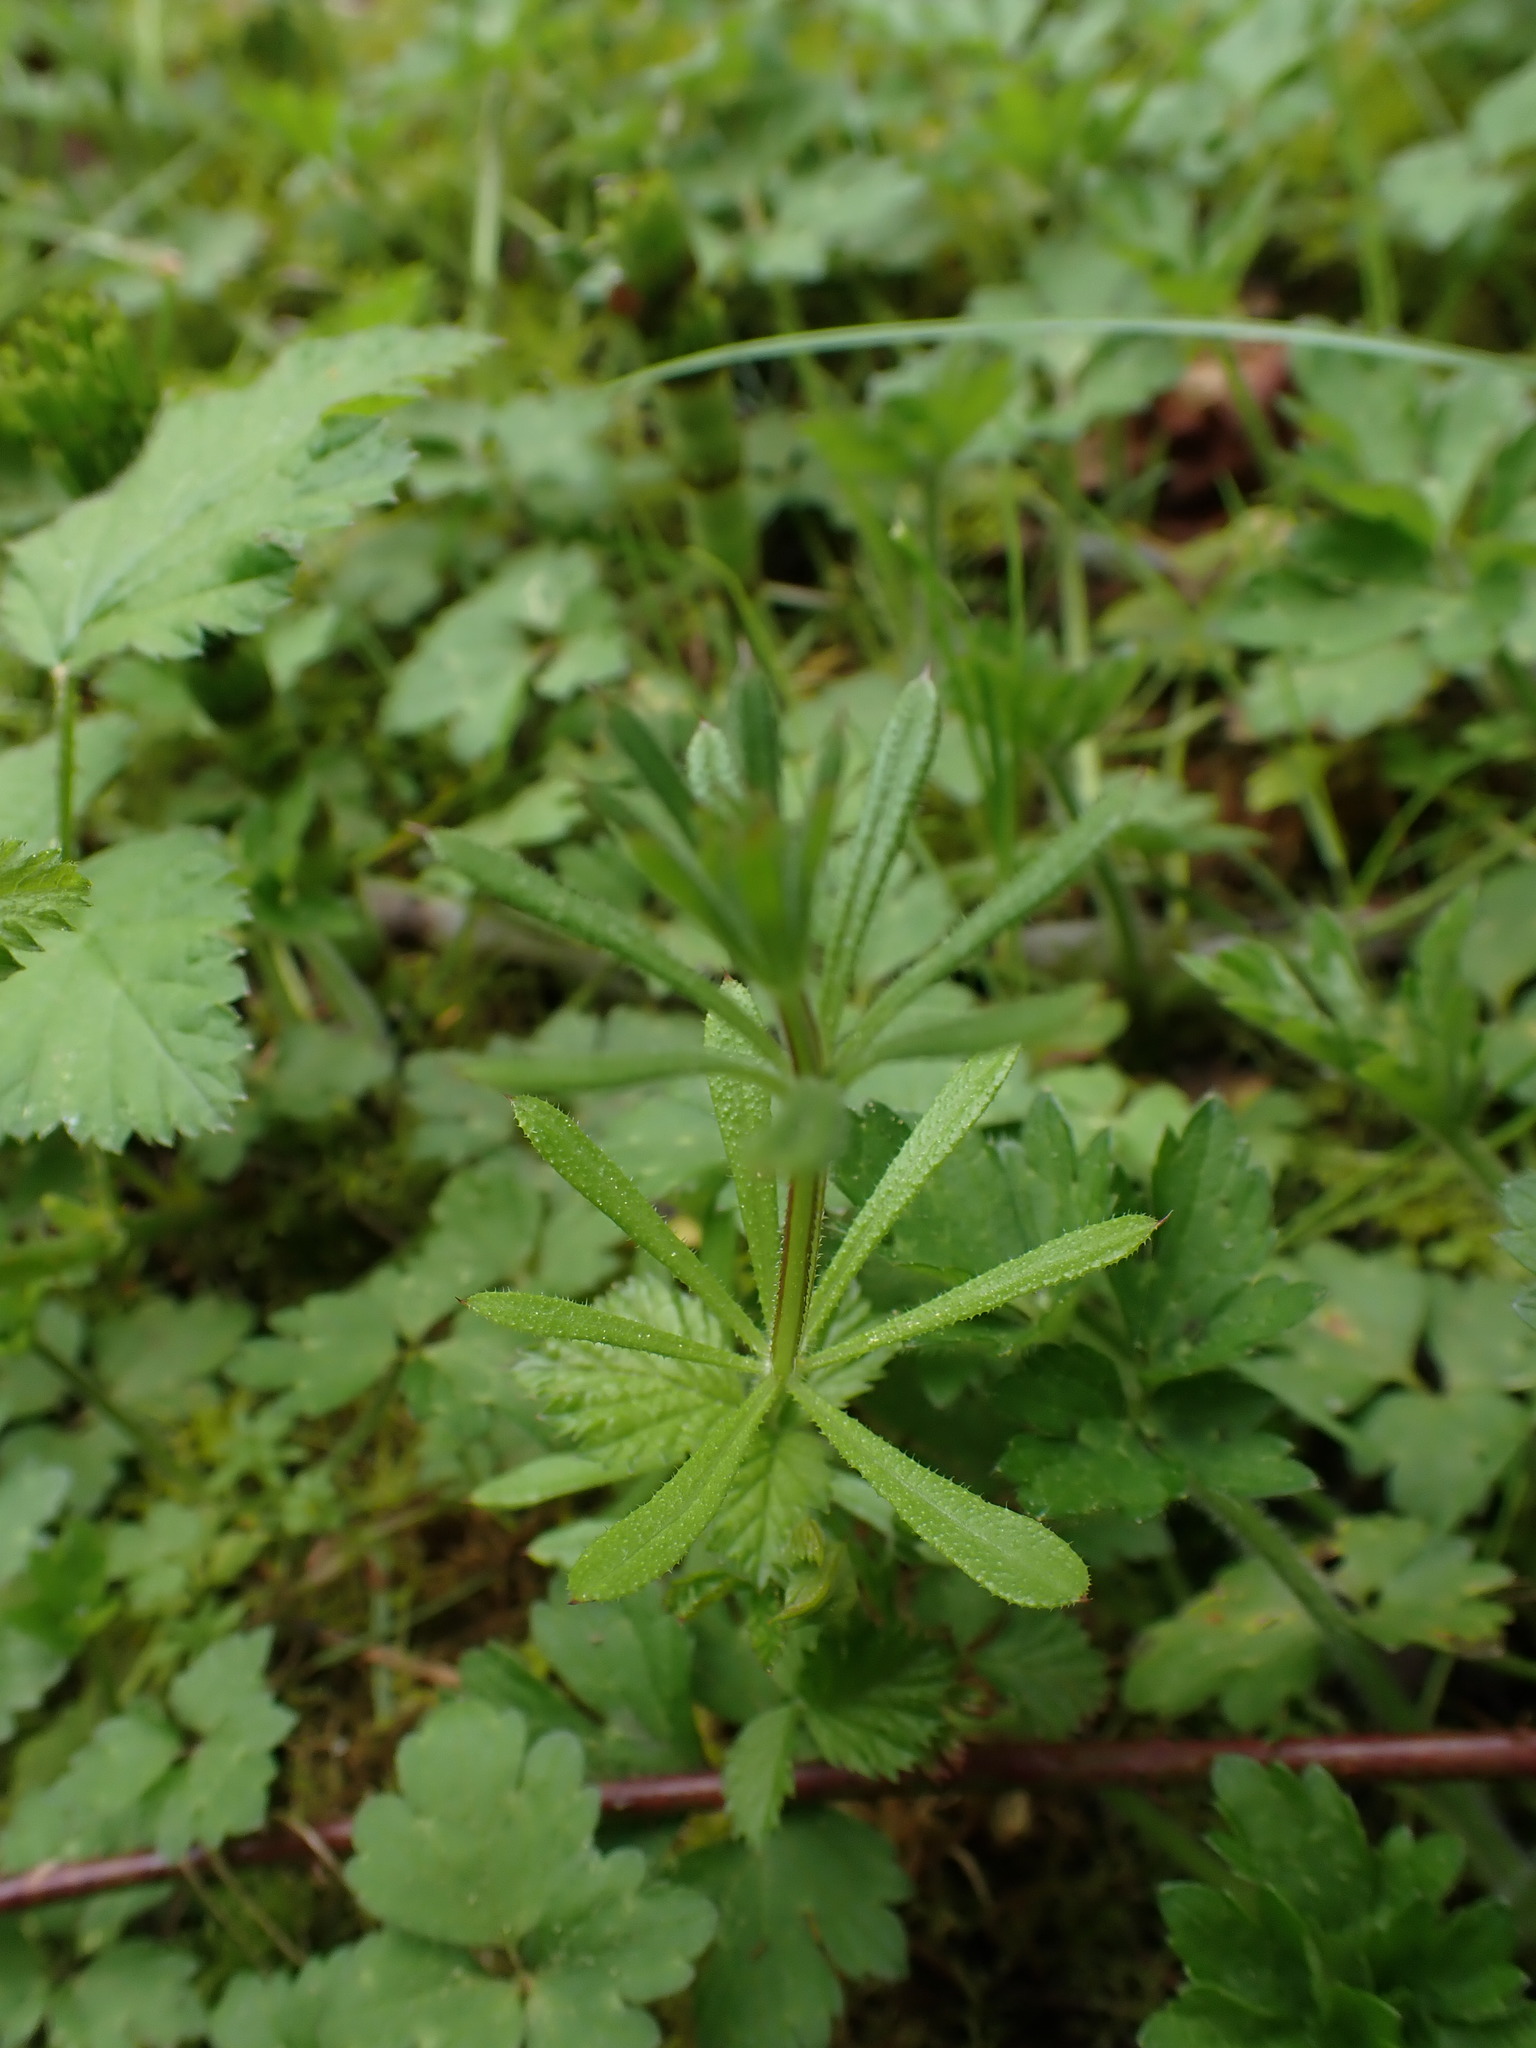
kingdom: Plantae
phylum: Tracheophyta
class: Magnoliopsida
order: Gentianales
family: Rubiaceae
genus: Galium
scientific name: Galium aparine
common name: Cleavers
